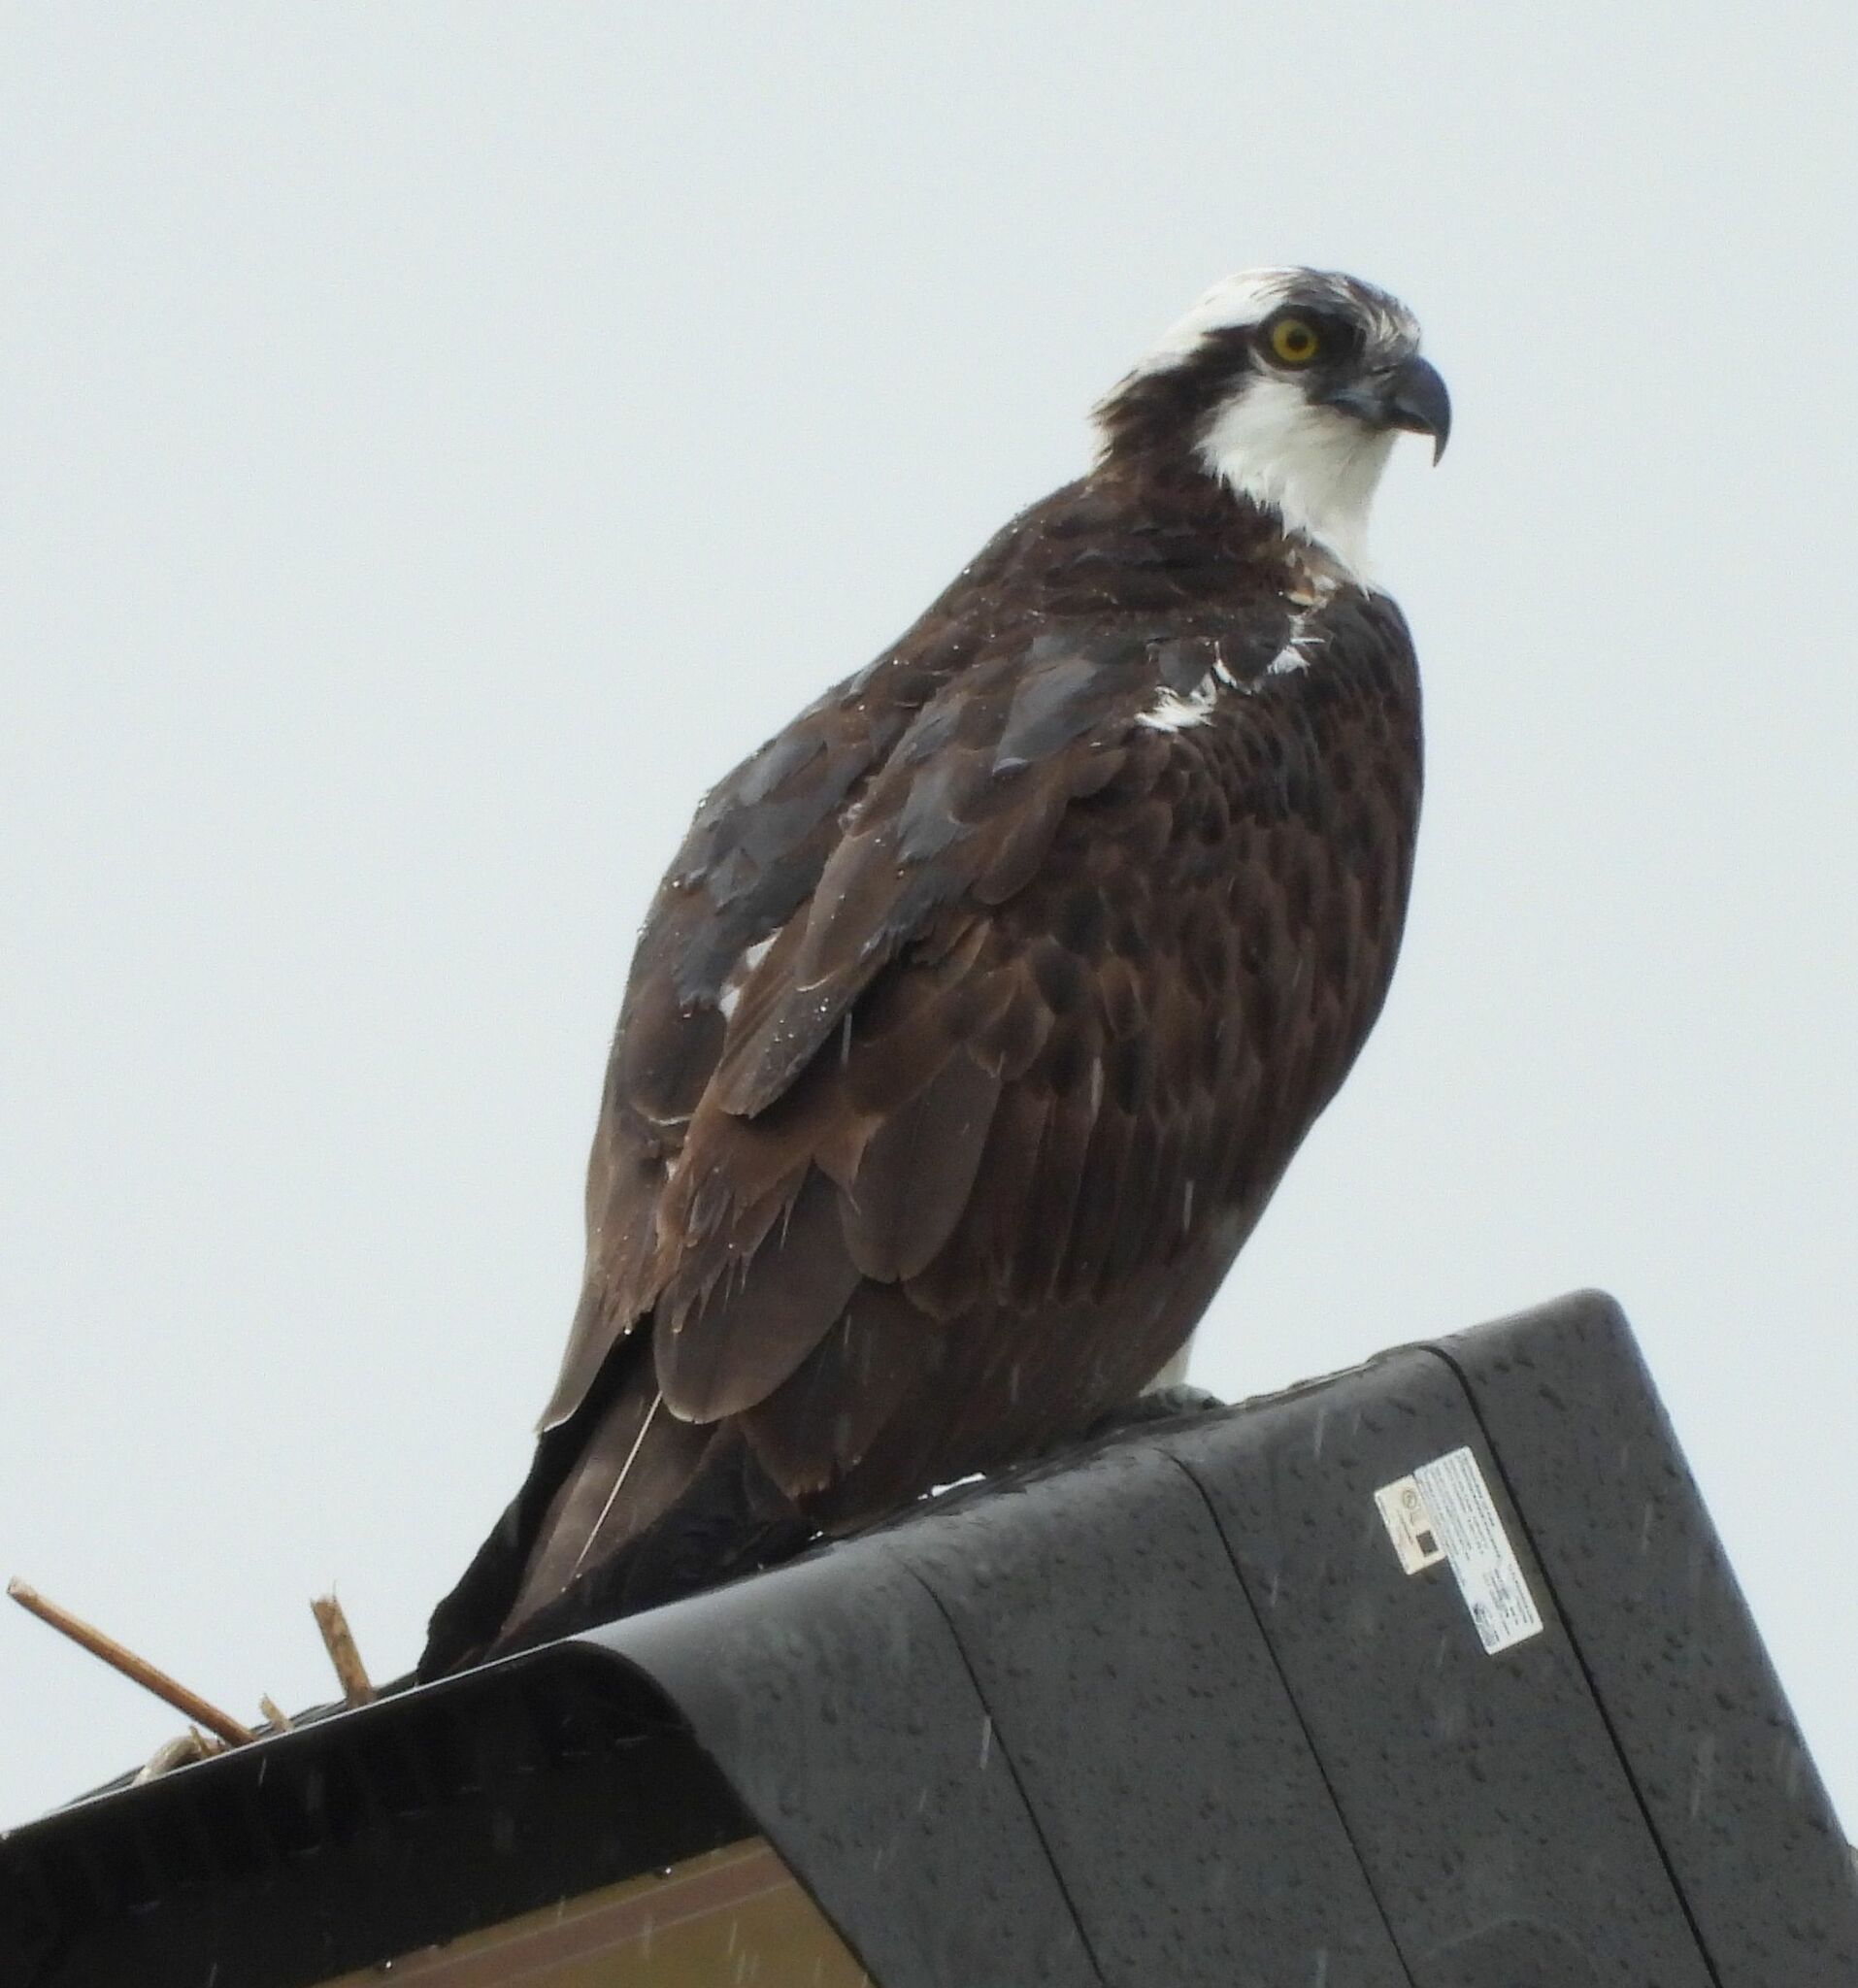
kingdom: Animalia
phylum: Chordata
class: Aves
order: Accipitriformes
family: Pandionidae
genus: Pandion
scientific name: Pandion haliaetus
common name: Osprey
